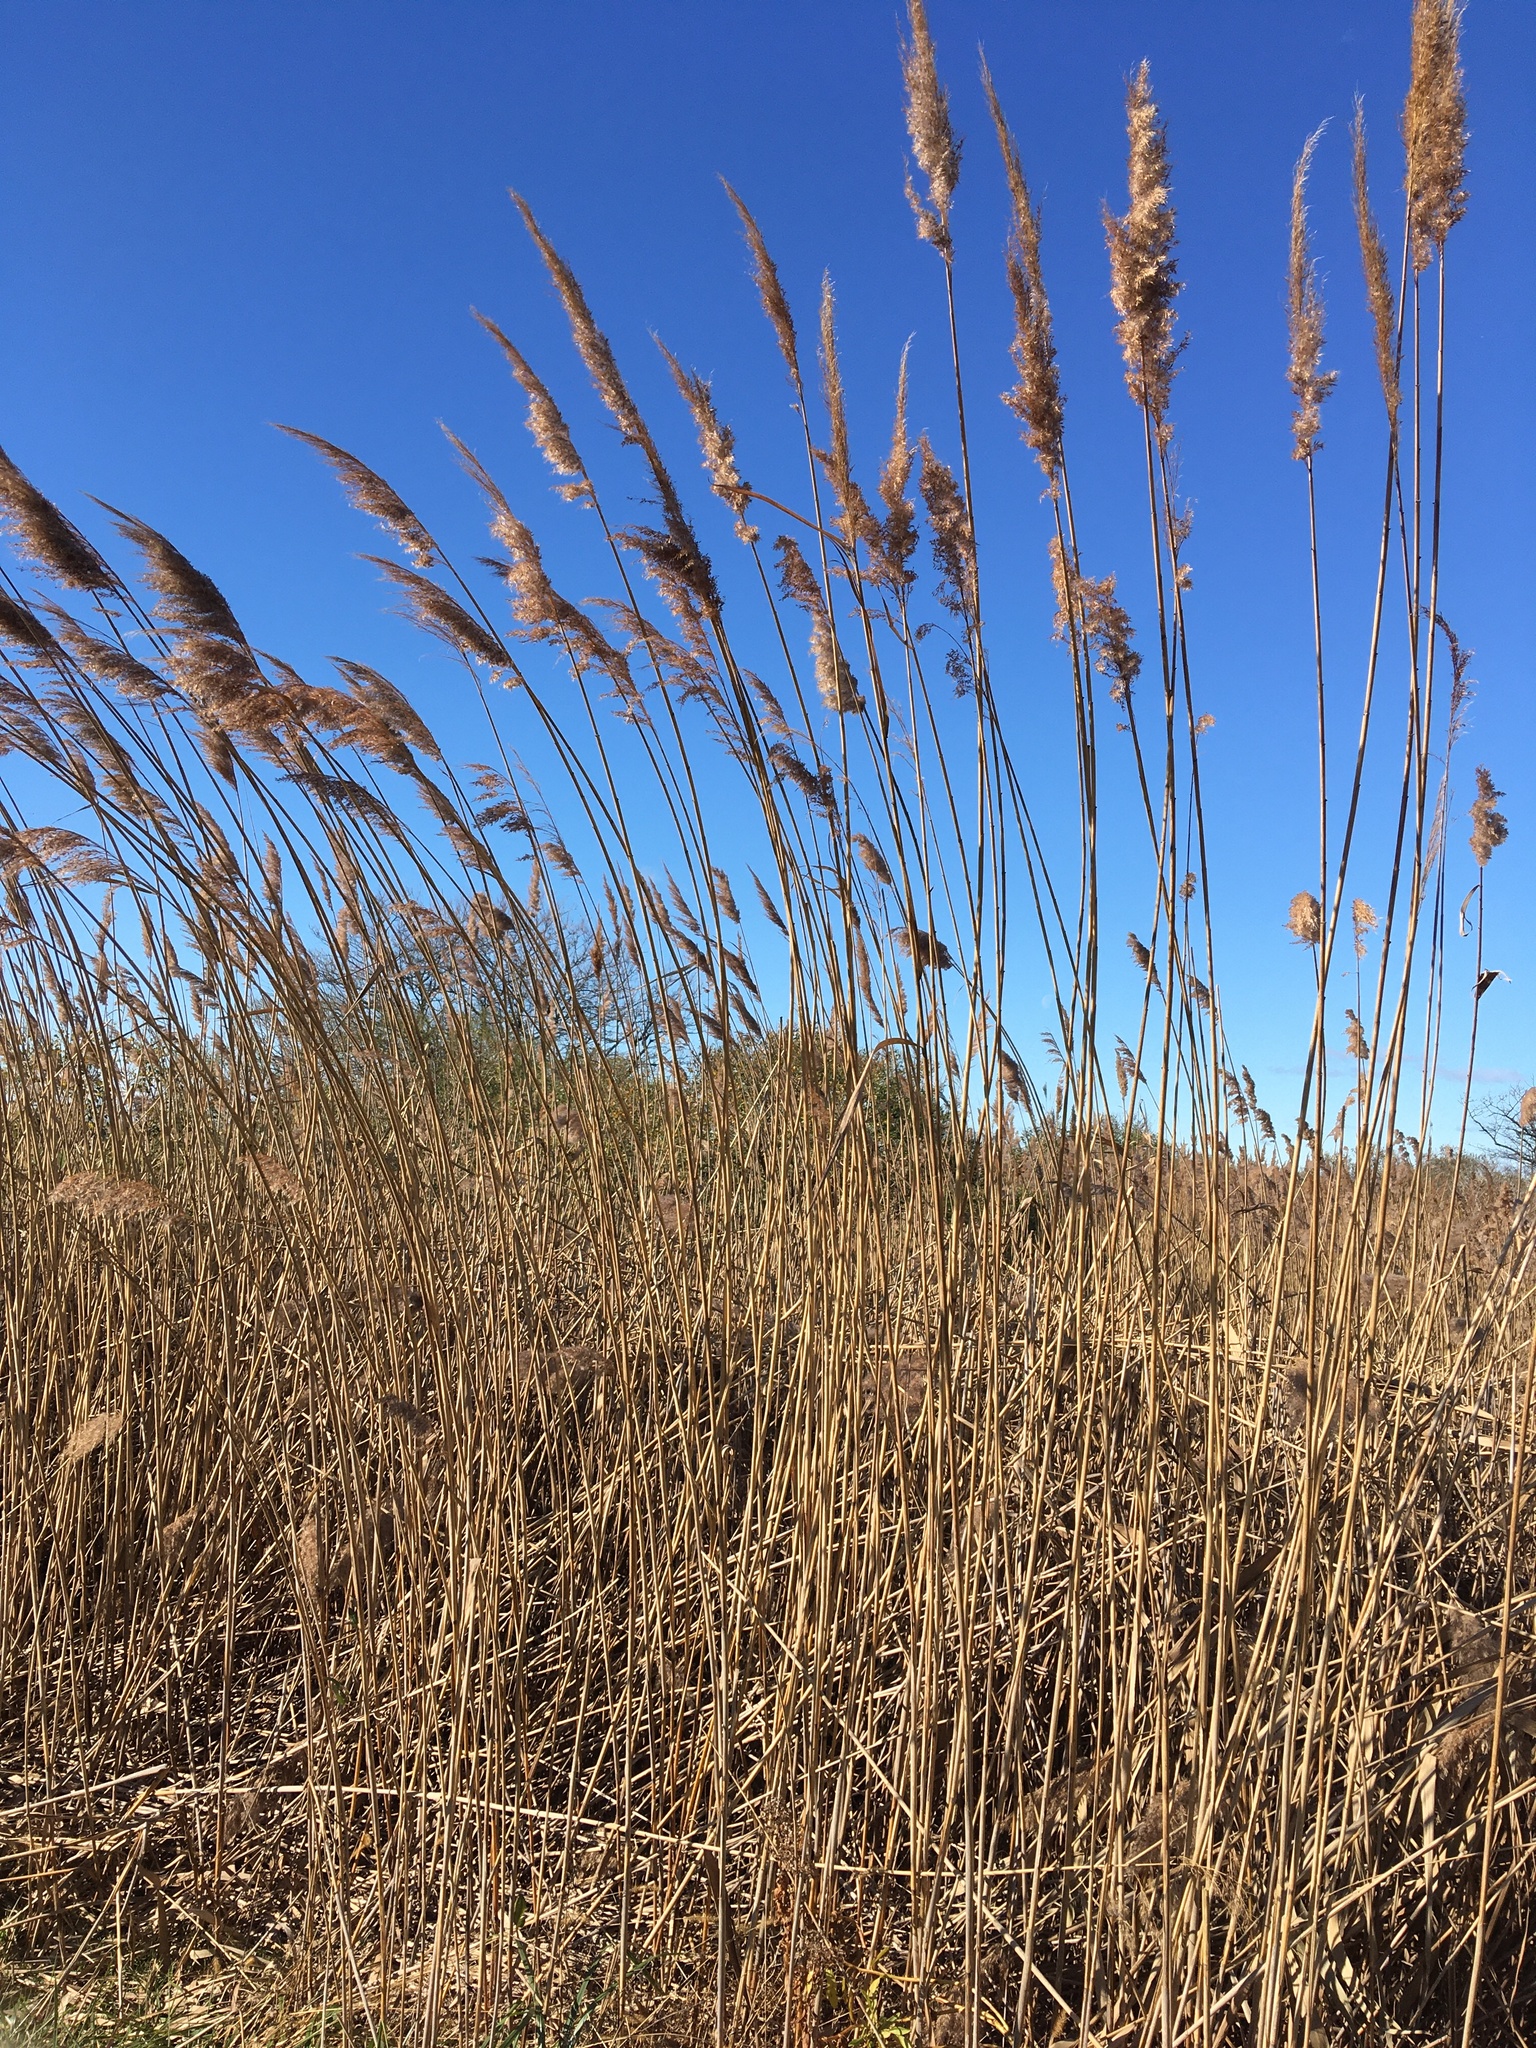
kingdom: Plantae
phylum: Tracheophyta
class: Liliopsida
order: Poales
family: Poaceae
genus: Phragmites
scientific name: Phragmites australis
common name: Common reed
